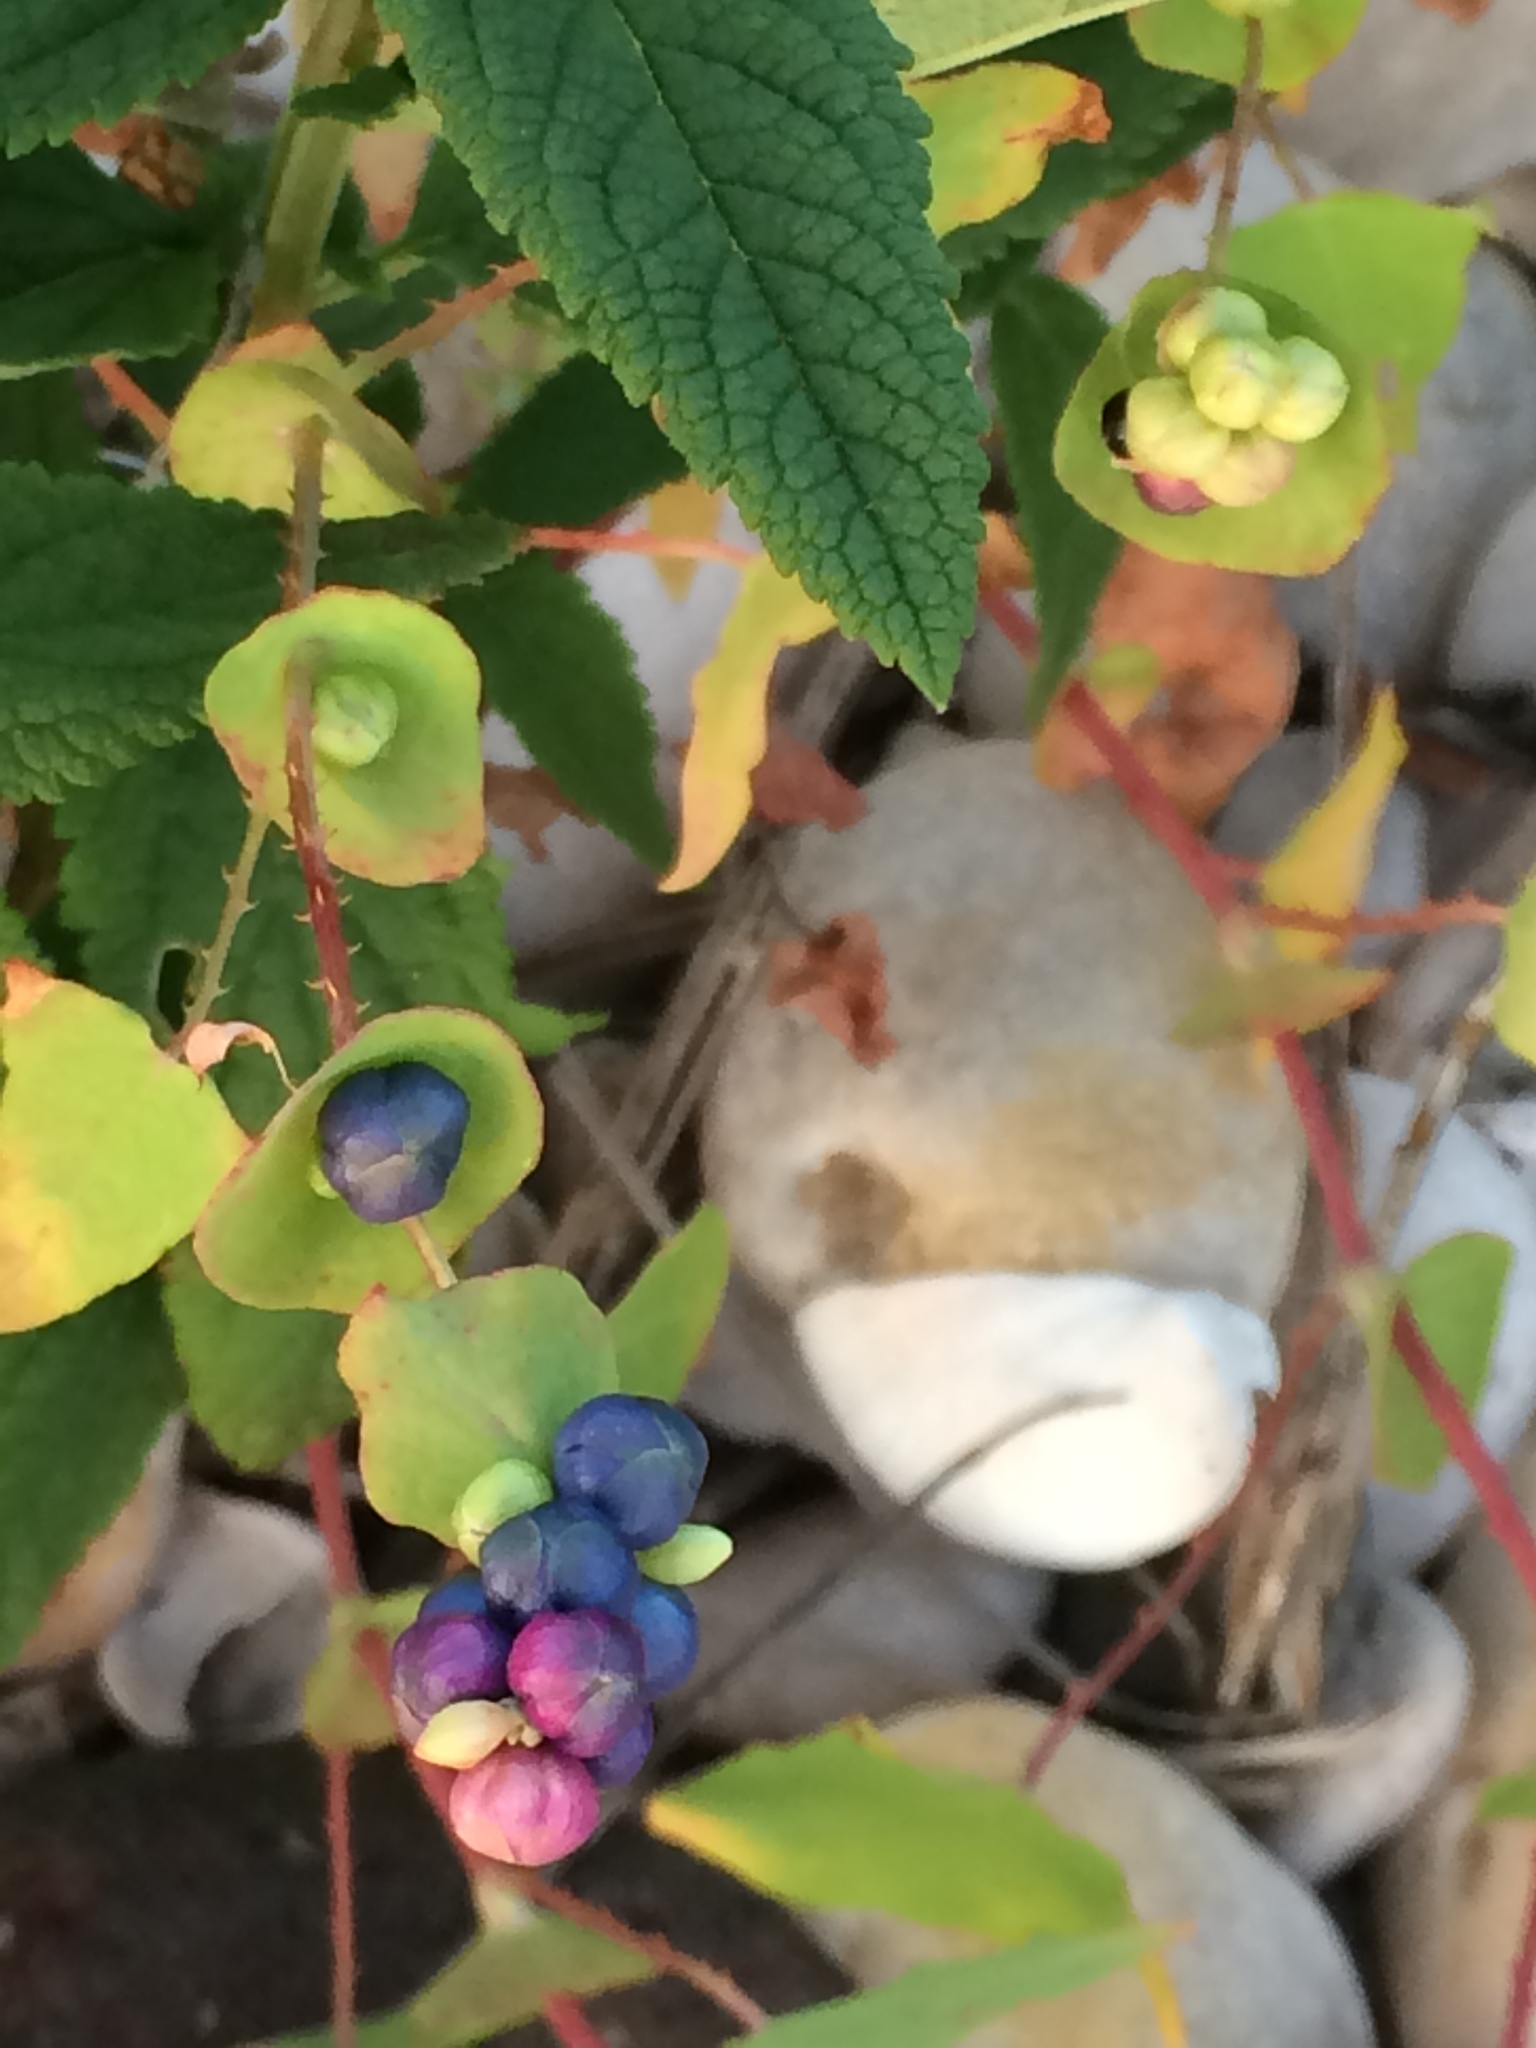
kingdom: Plantae
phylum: Tracheophyta
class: Magnoliopsida
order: Caryophyllales
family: Polygonaceae
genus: Persicaria
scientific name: Persicaria perfoliata
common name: Asiatic tearthumb
